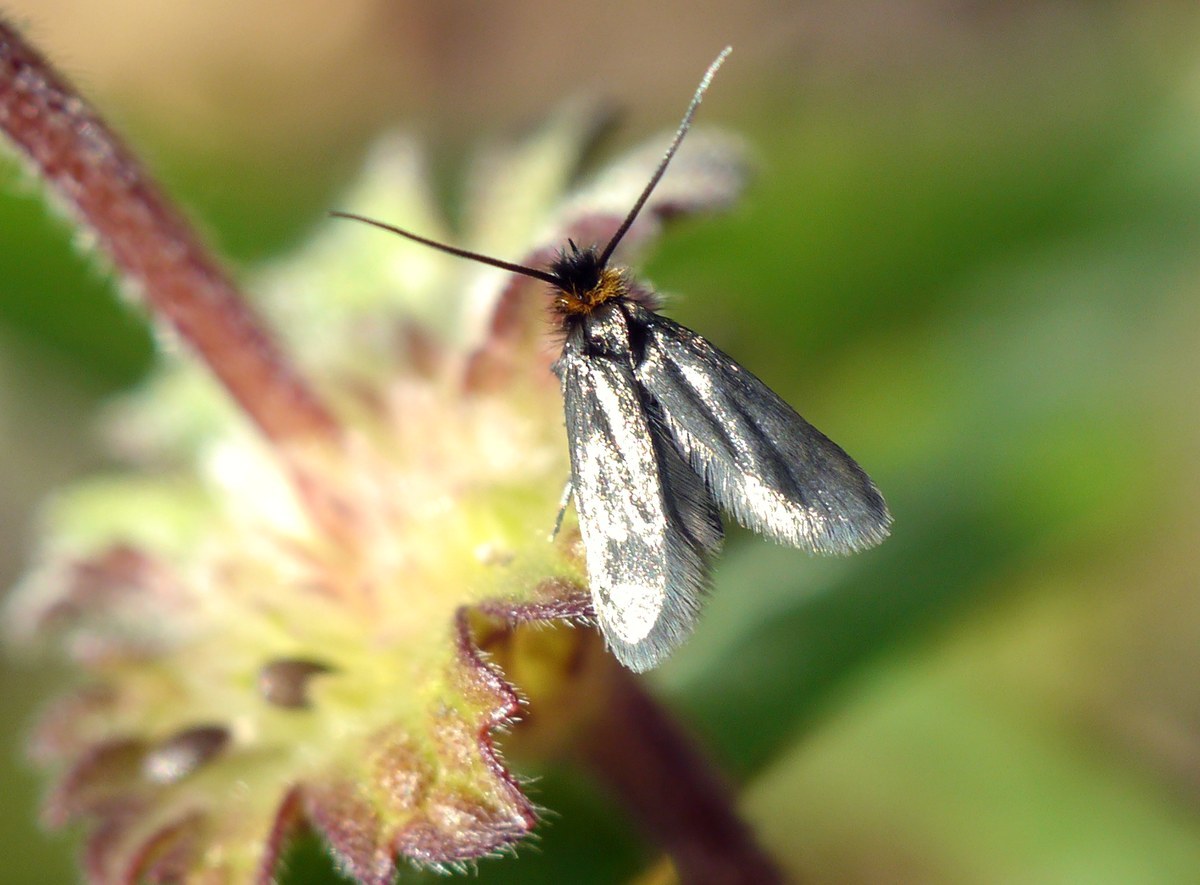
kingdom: Animalia
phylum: Arthropoda
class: Insecta
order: Lepidoptera
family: Adelidae
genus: Cauchas
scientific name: Cauchas rufifrontella
